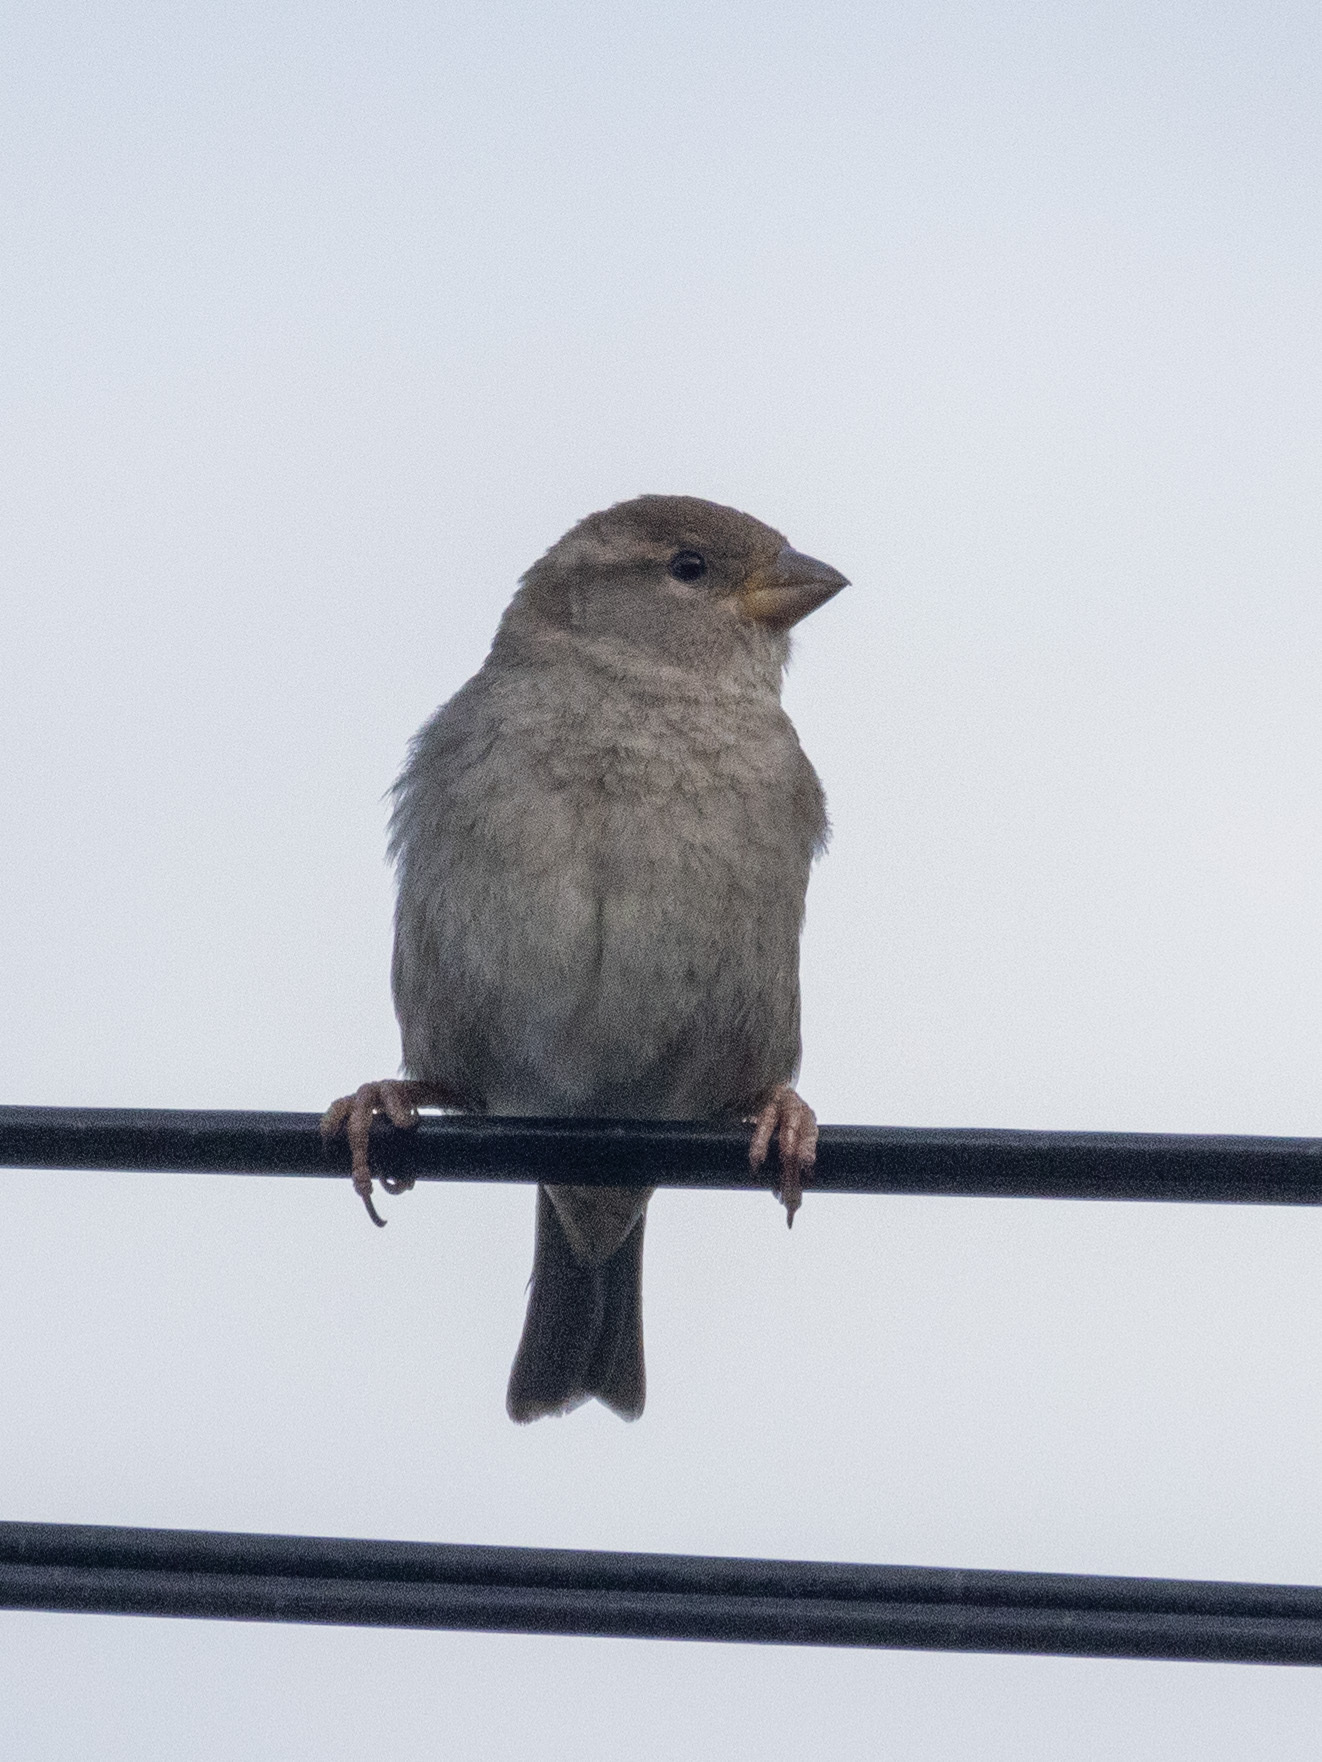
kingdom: Animalia
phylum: Chordata
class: Aves
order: Passeriformes
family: Passeridae
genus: Passer
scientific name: Passer hispaniolensis
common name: Spanish sparrow
